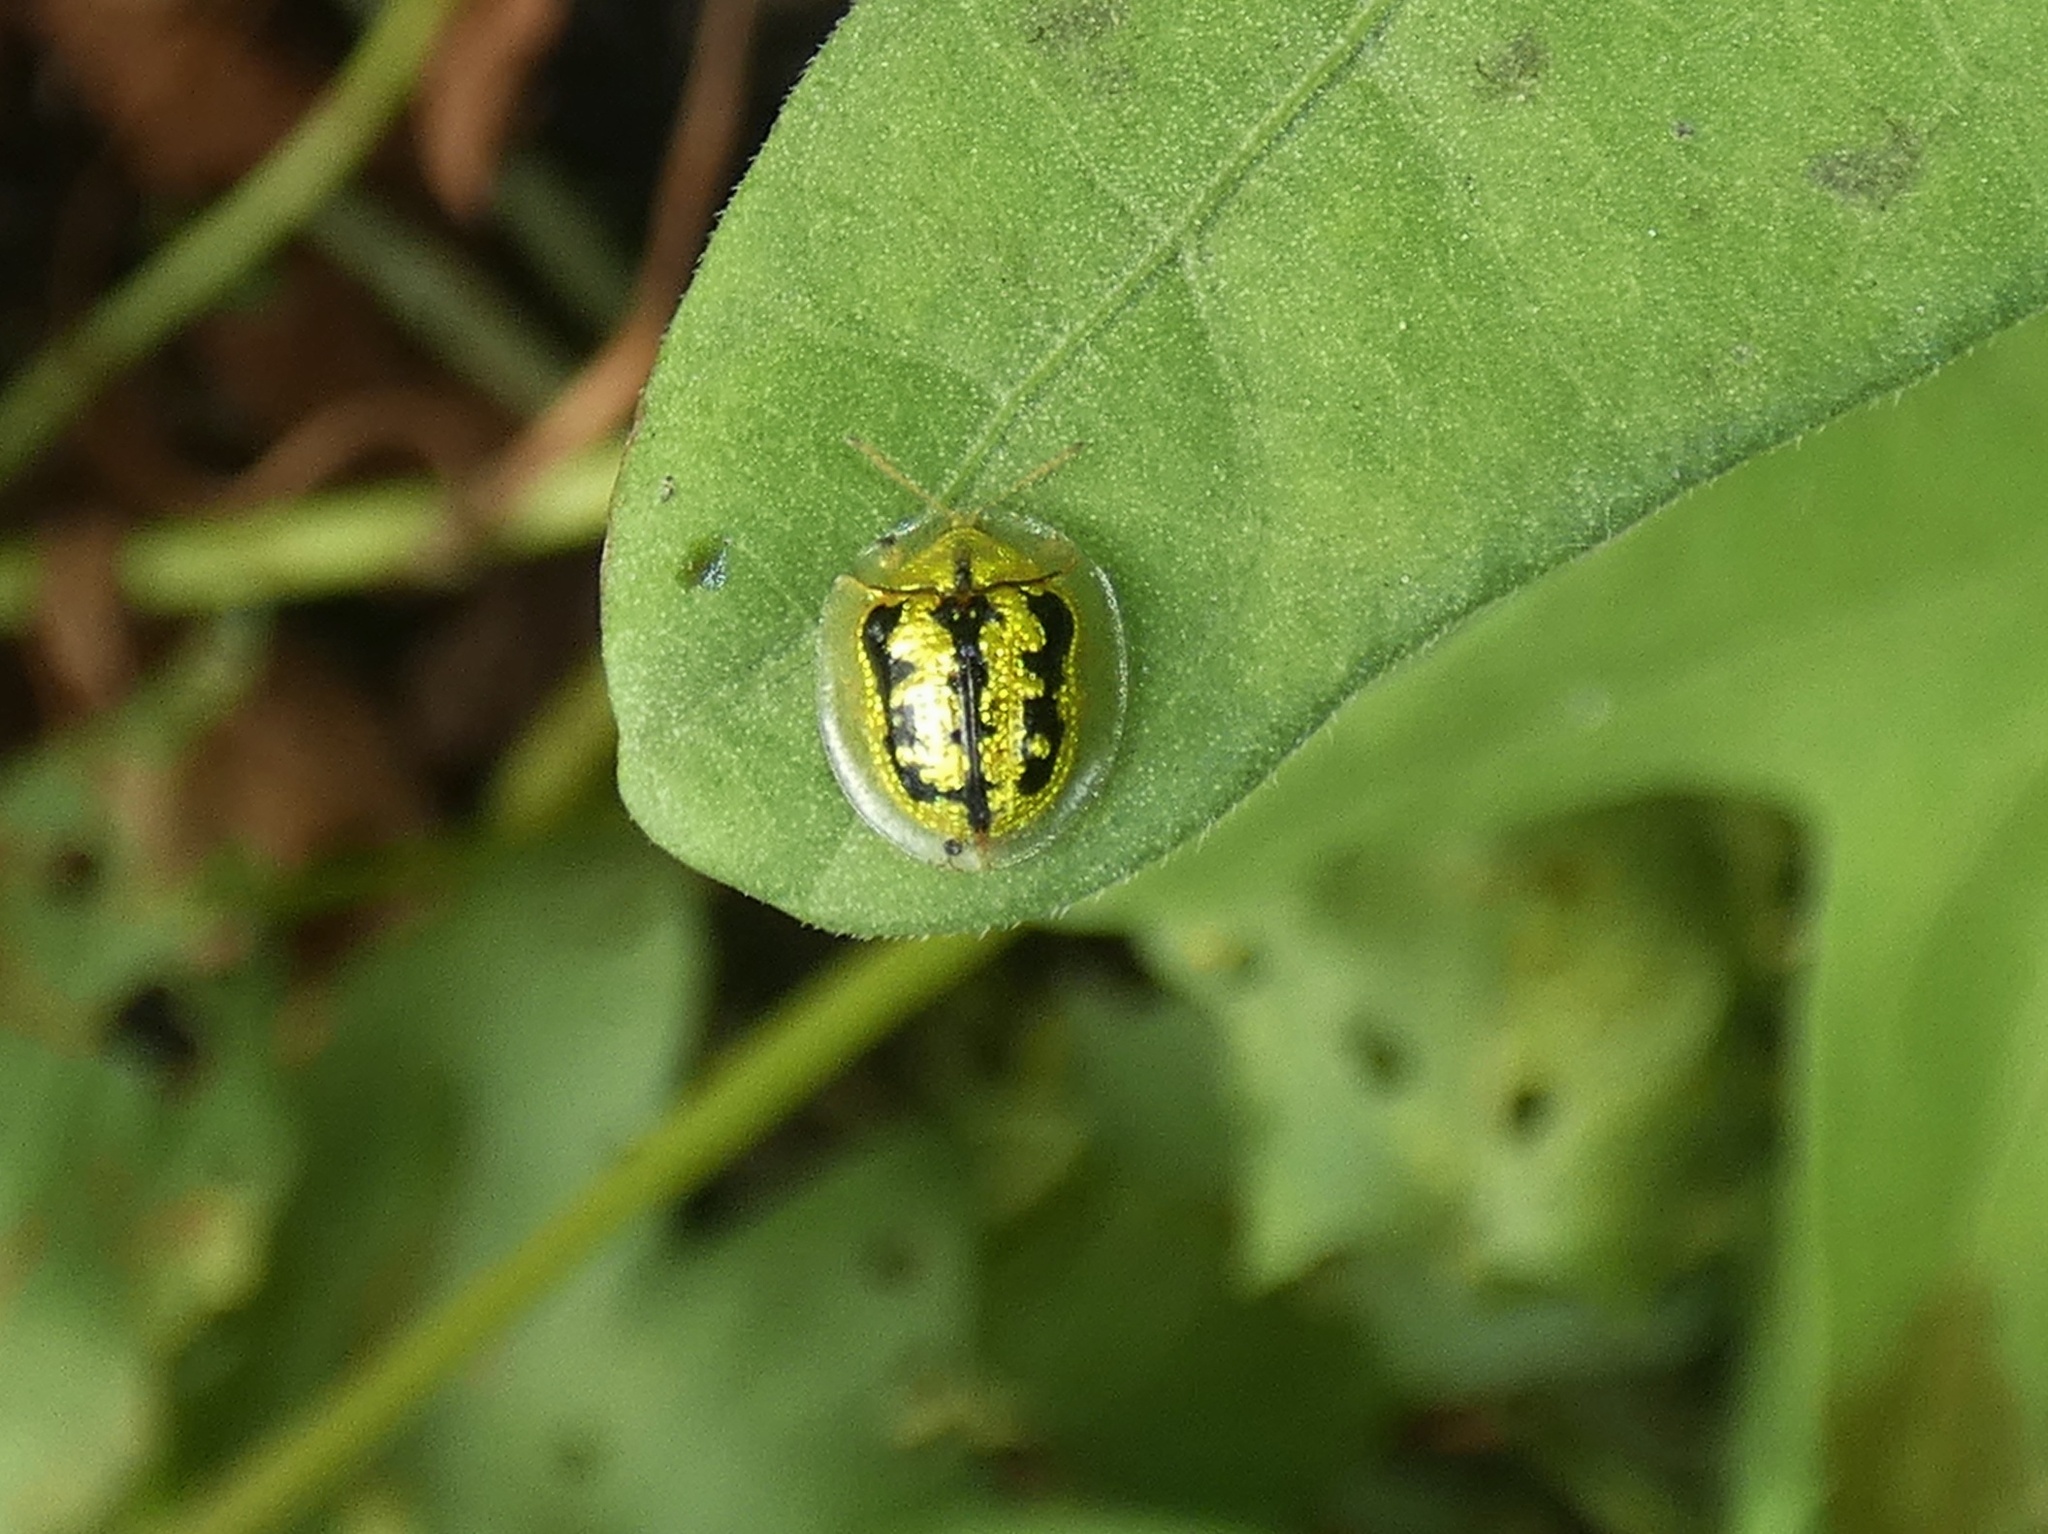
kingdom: Animalia
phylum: Arthropoda
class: Insecta
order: Coleoptera
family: Chrysomelidae
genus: Cassida
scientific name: Cassida circumdata
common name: Tortoise beetle
